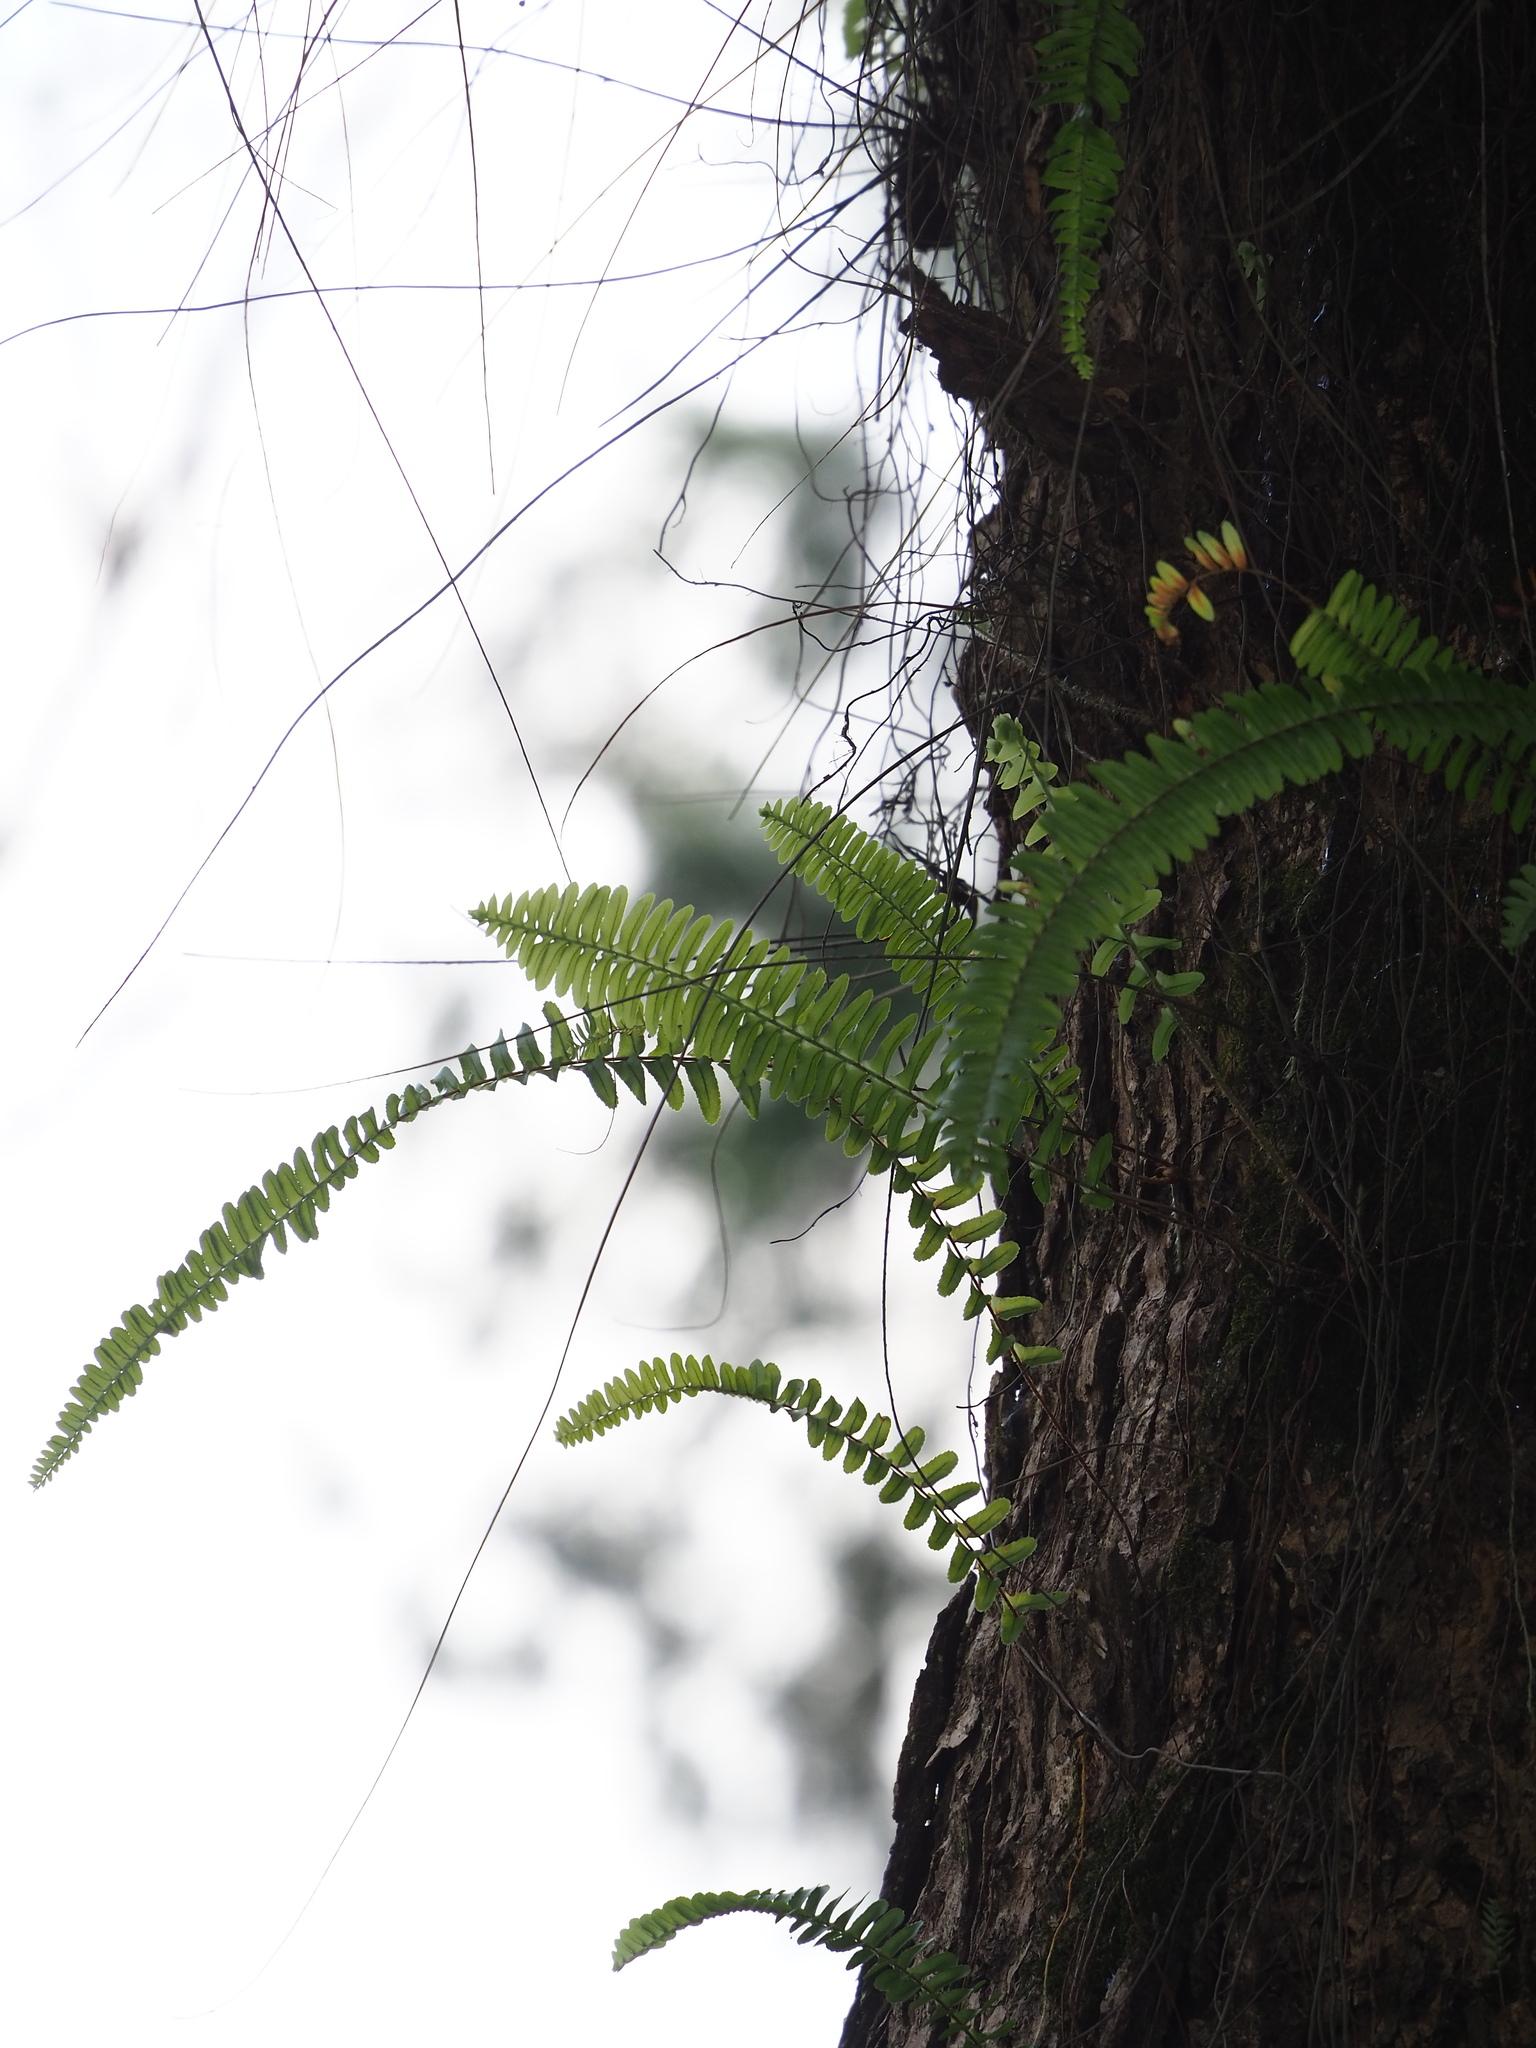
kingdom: Plantae
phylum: Tracheophyta
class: Polypodiopsida
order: Polypodiales
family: Nephrolepidaceae
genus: Nephrolepis
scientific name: Nephrolepis cordifolia
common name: Narrow swordfern
